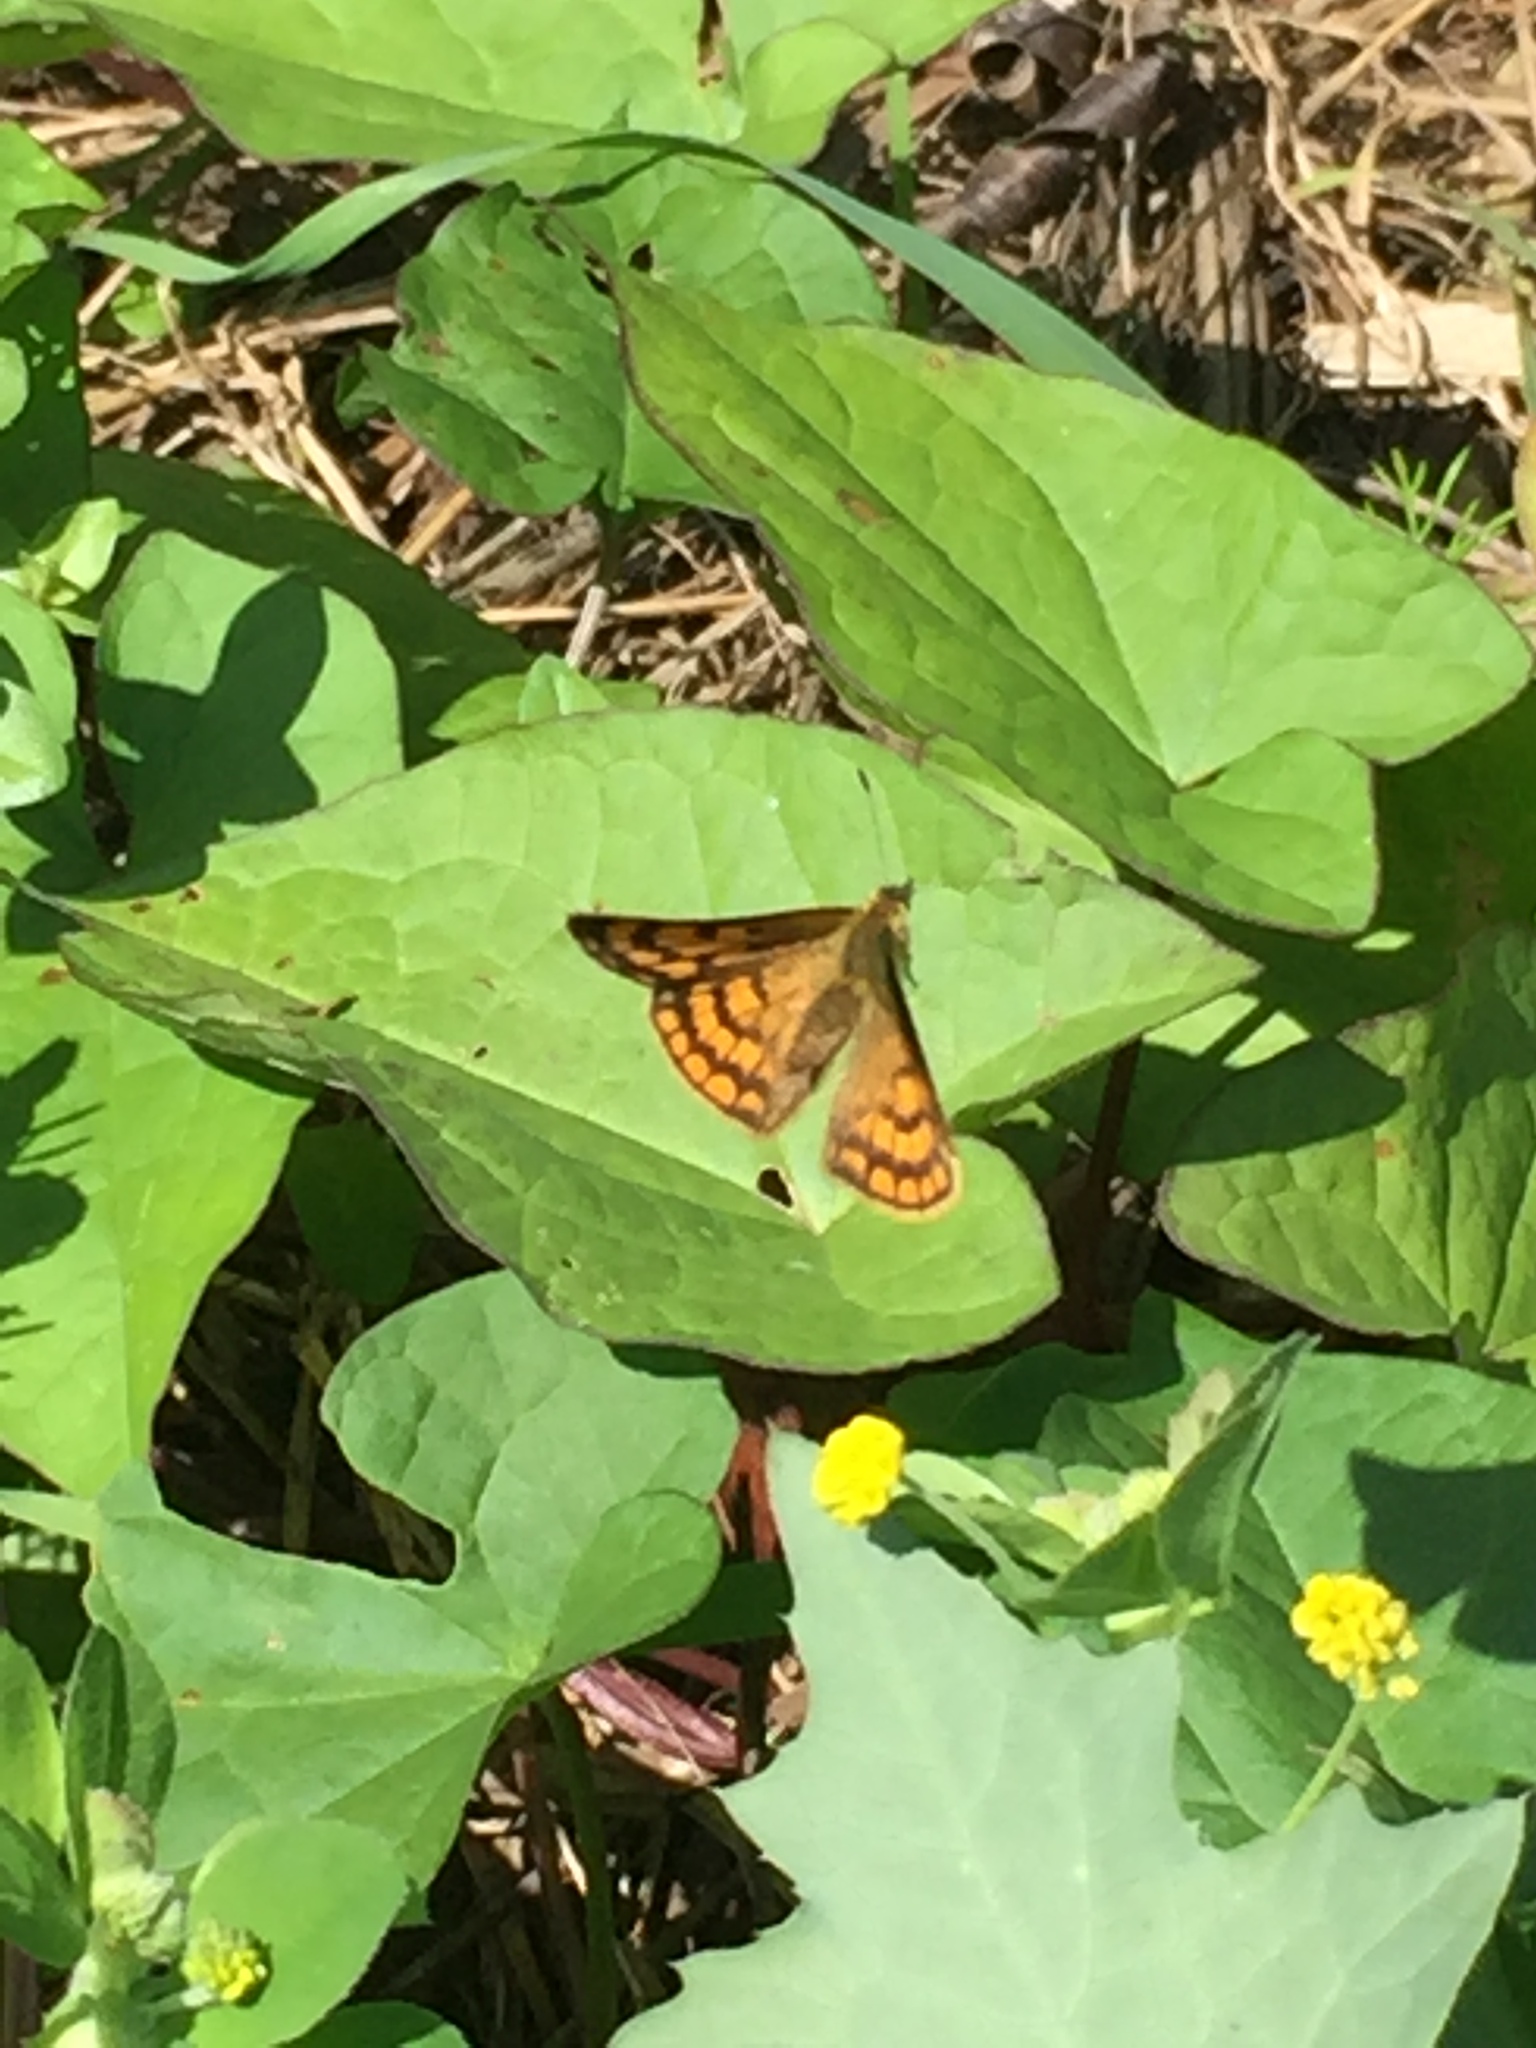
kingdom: Animalia
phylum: Arthropoda
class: Insecta
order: Lepidoptera
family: Lycaenidae
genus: Lycaena
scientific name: Lycaena salustius
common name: North island coastal copper
